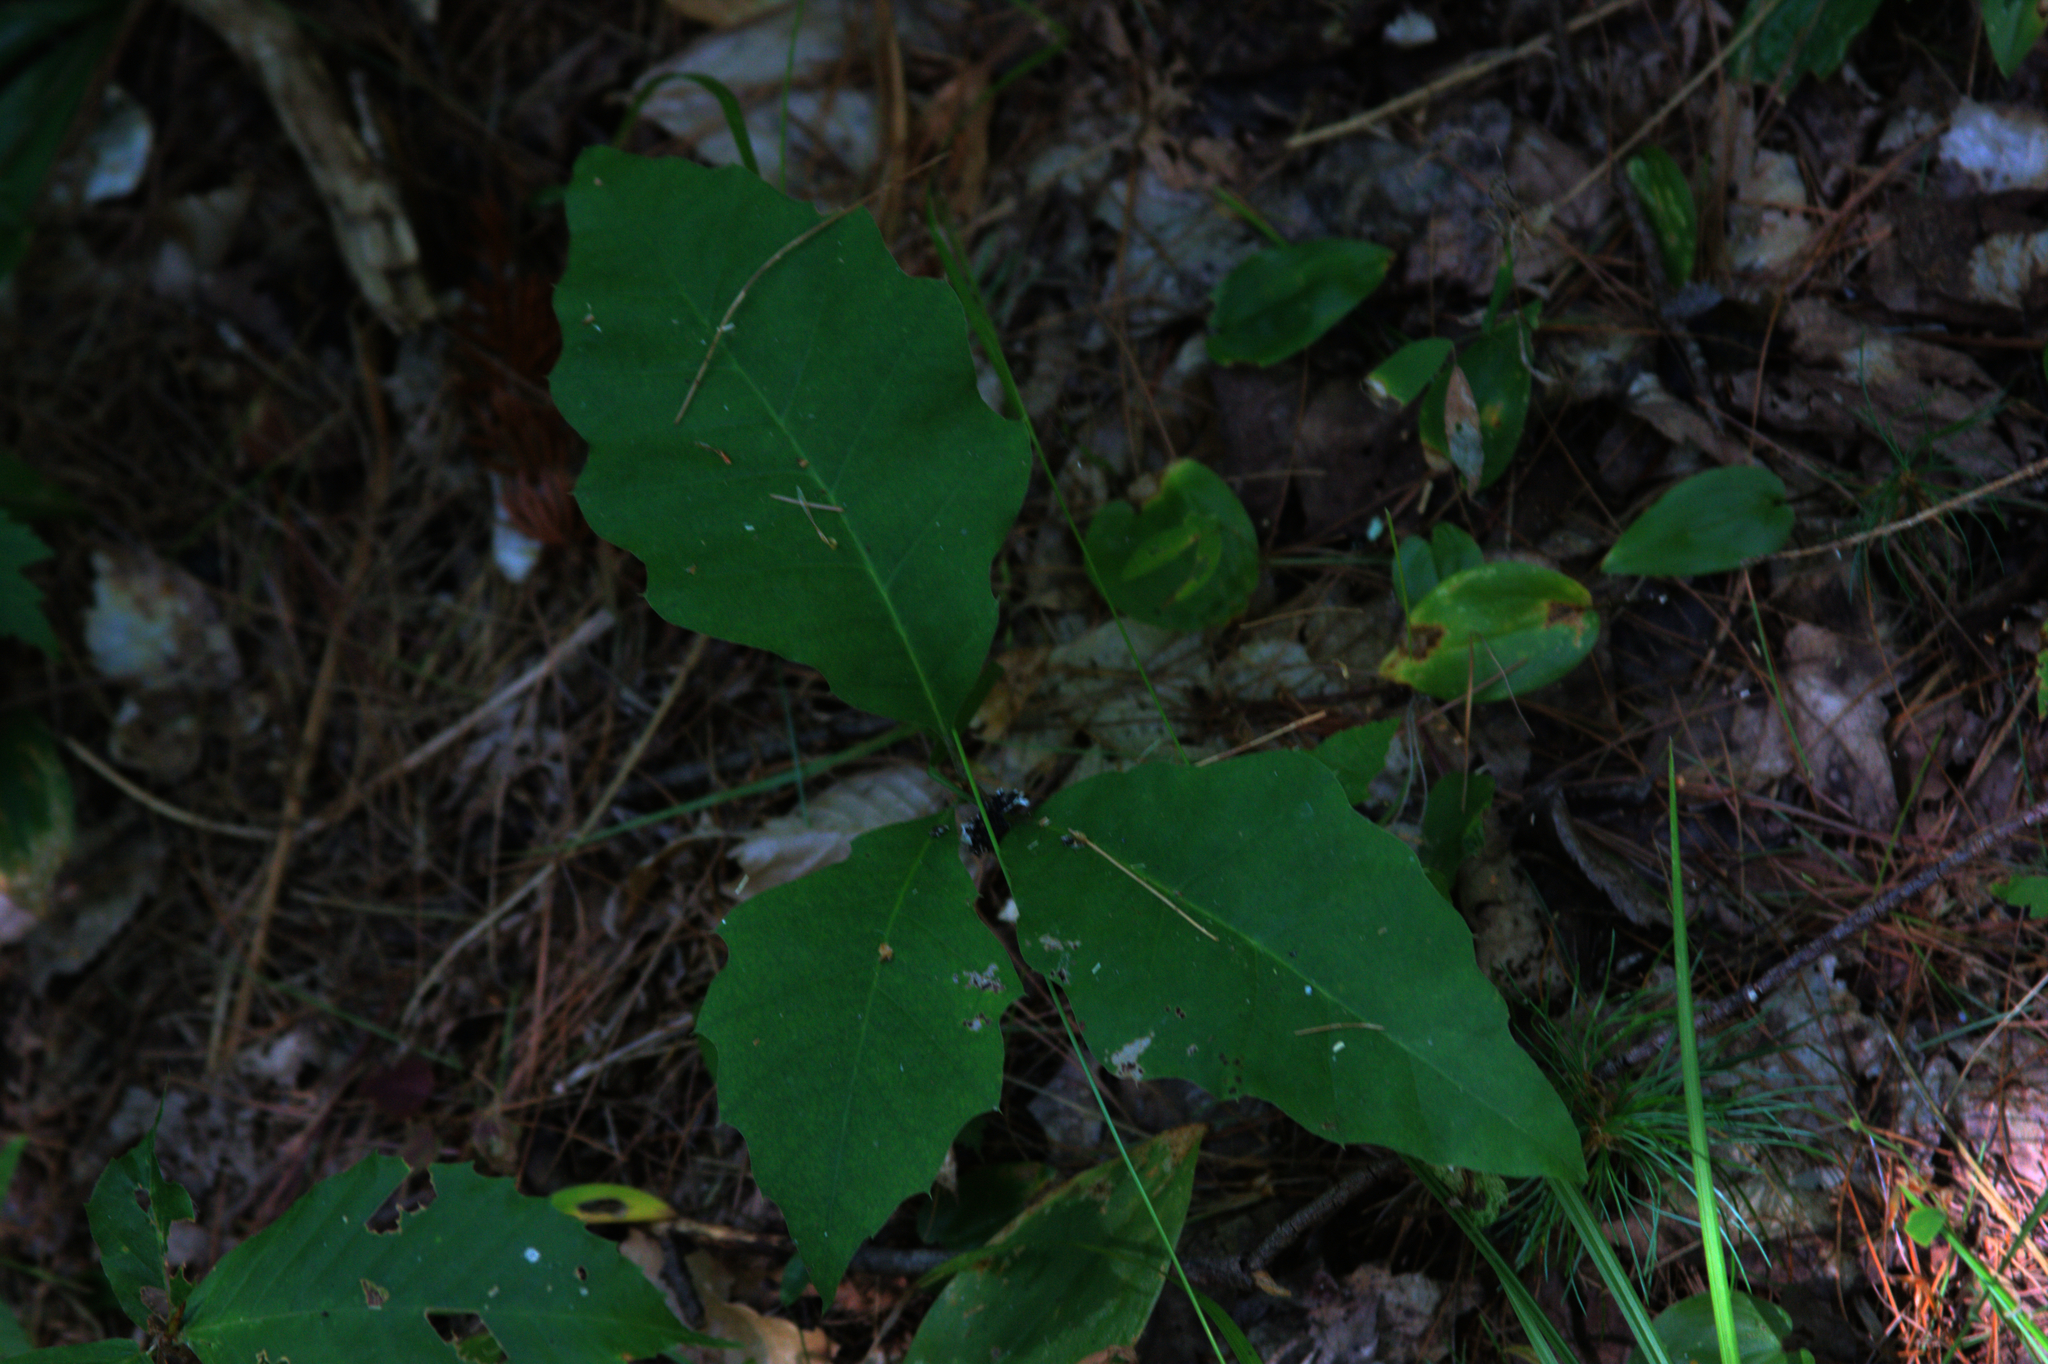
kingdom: Plantae
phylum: Tracheophyta
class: Liliopsida
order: Asparagales
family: Asparagaceae
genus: Maianthemum
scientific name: Maianthemum canadense
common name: False lily-of-the-valley
